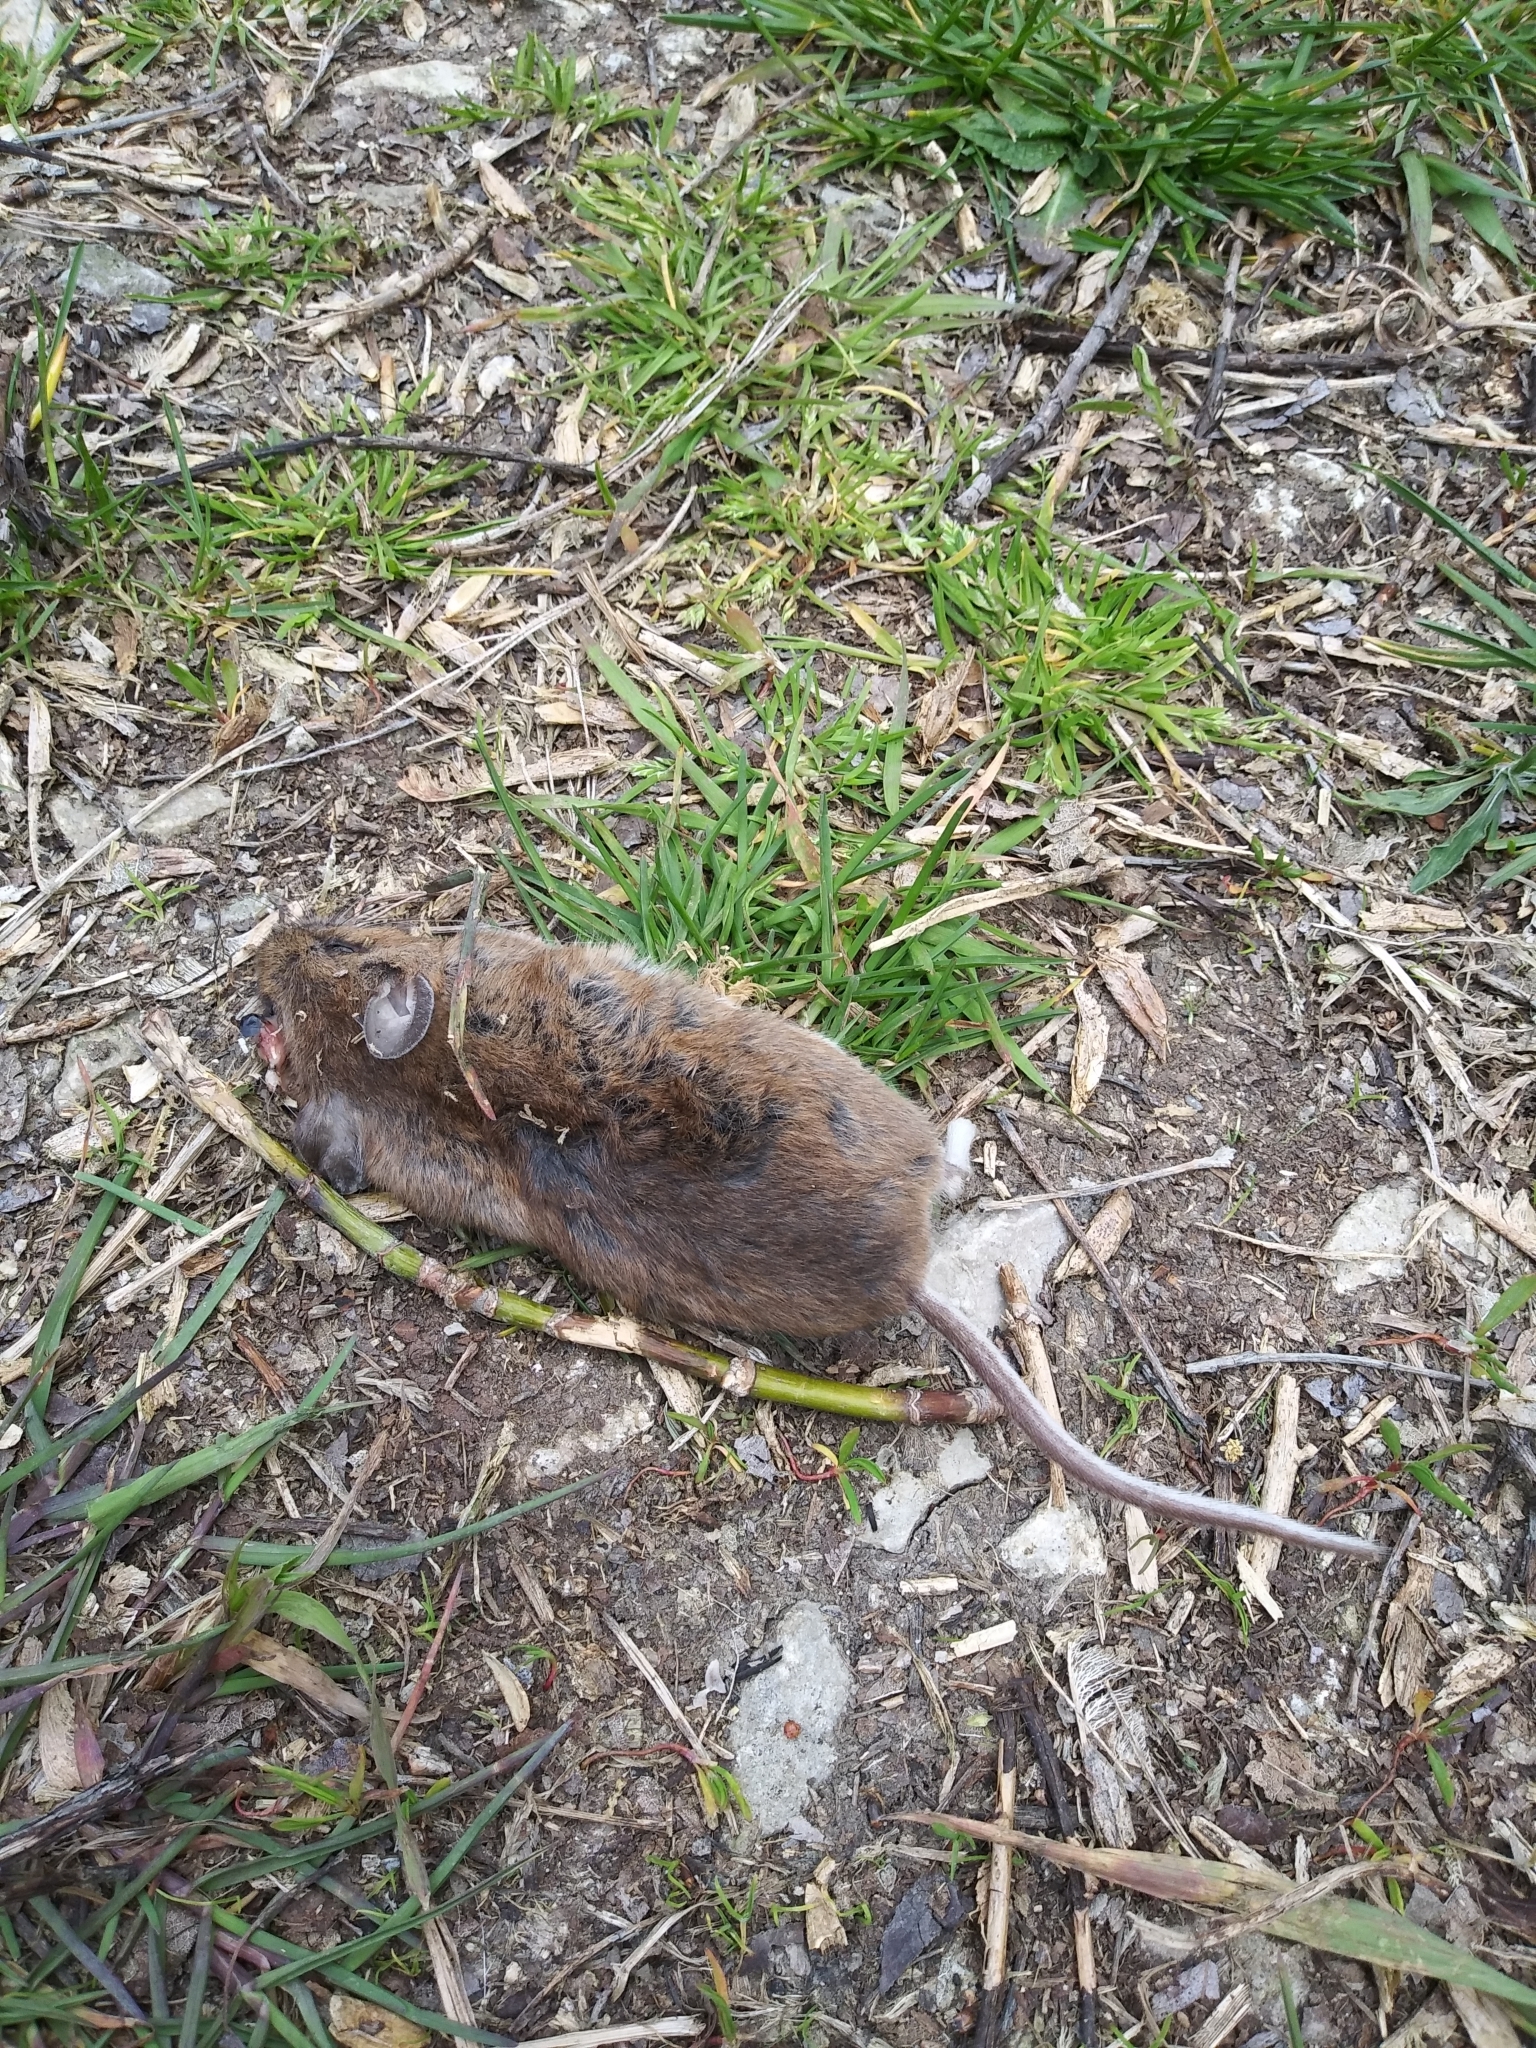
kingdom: Animalia
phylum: Chordata
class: Mammalia
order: Rodentia
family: Cricetidae
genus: Peromyscus
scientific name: Peromyscus maniculatus
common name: Deer mouse
